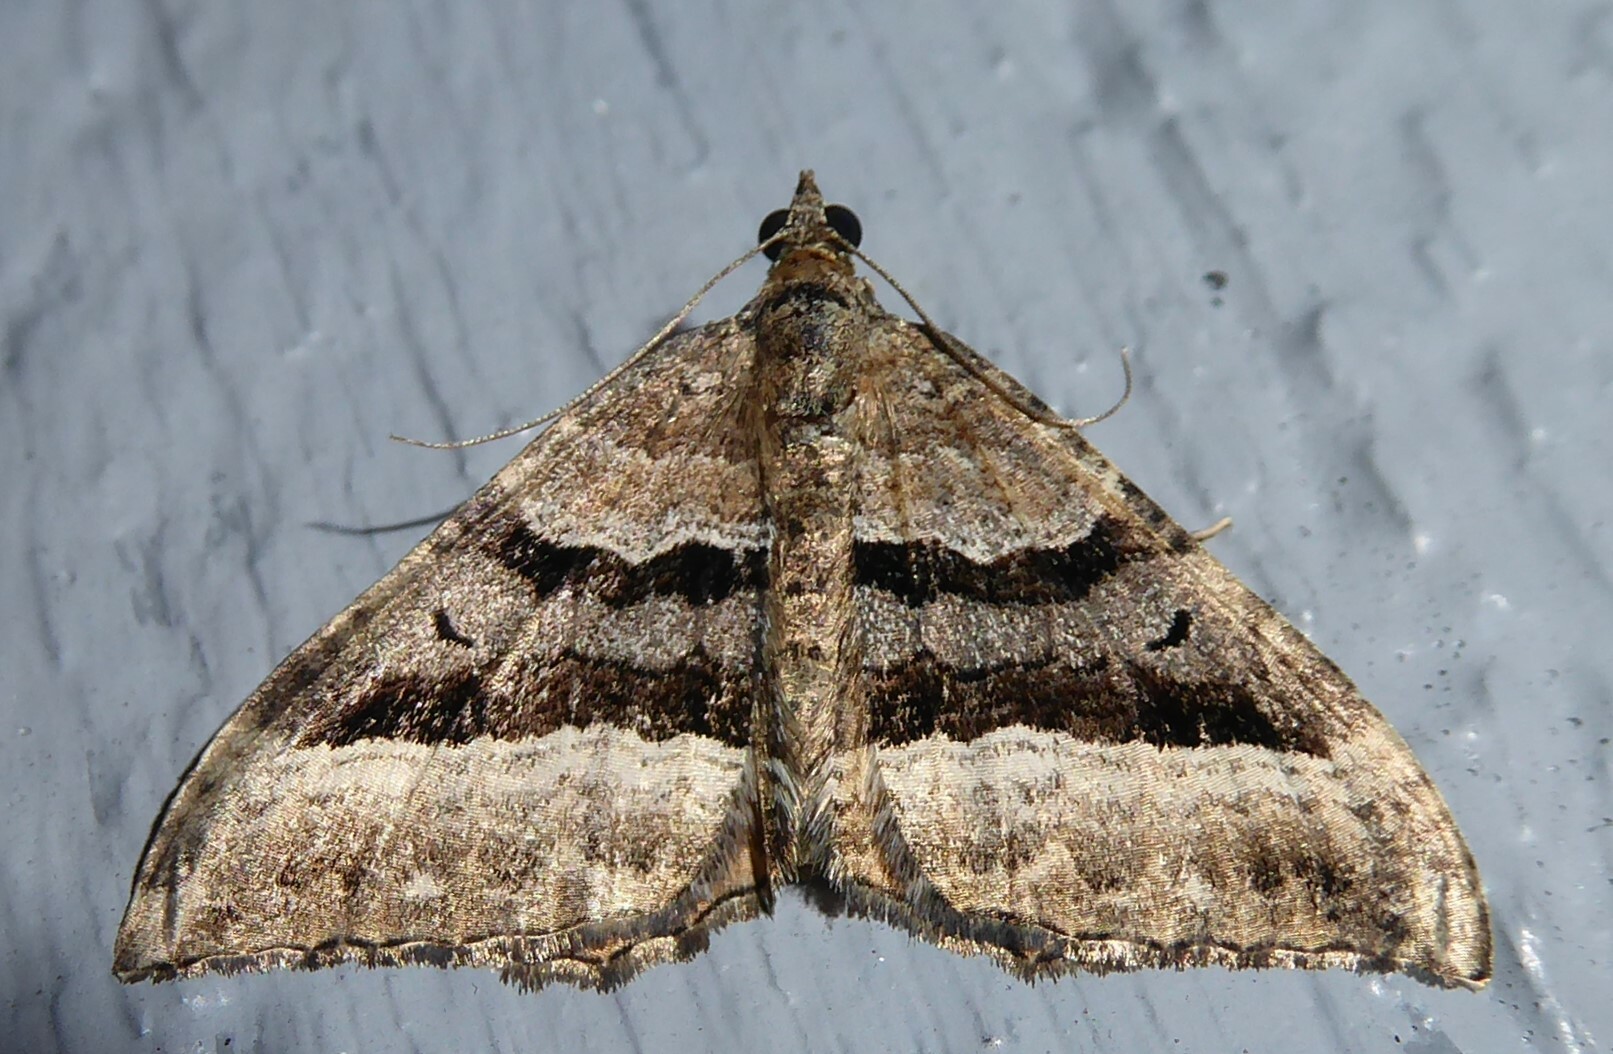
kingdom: Animalia
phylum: Arthropoda
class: Insecta
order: Lepidoptera
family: Geometridae
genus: Hydriomena
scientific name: Hydriomena deltoidata
